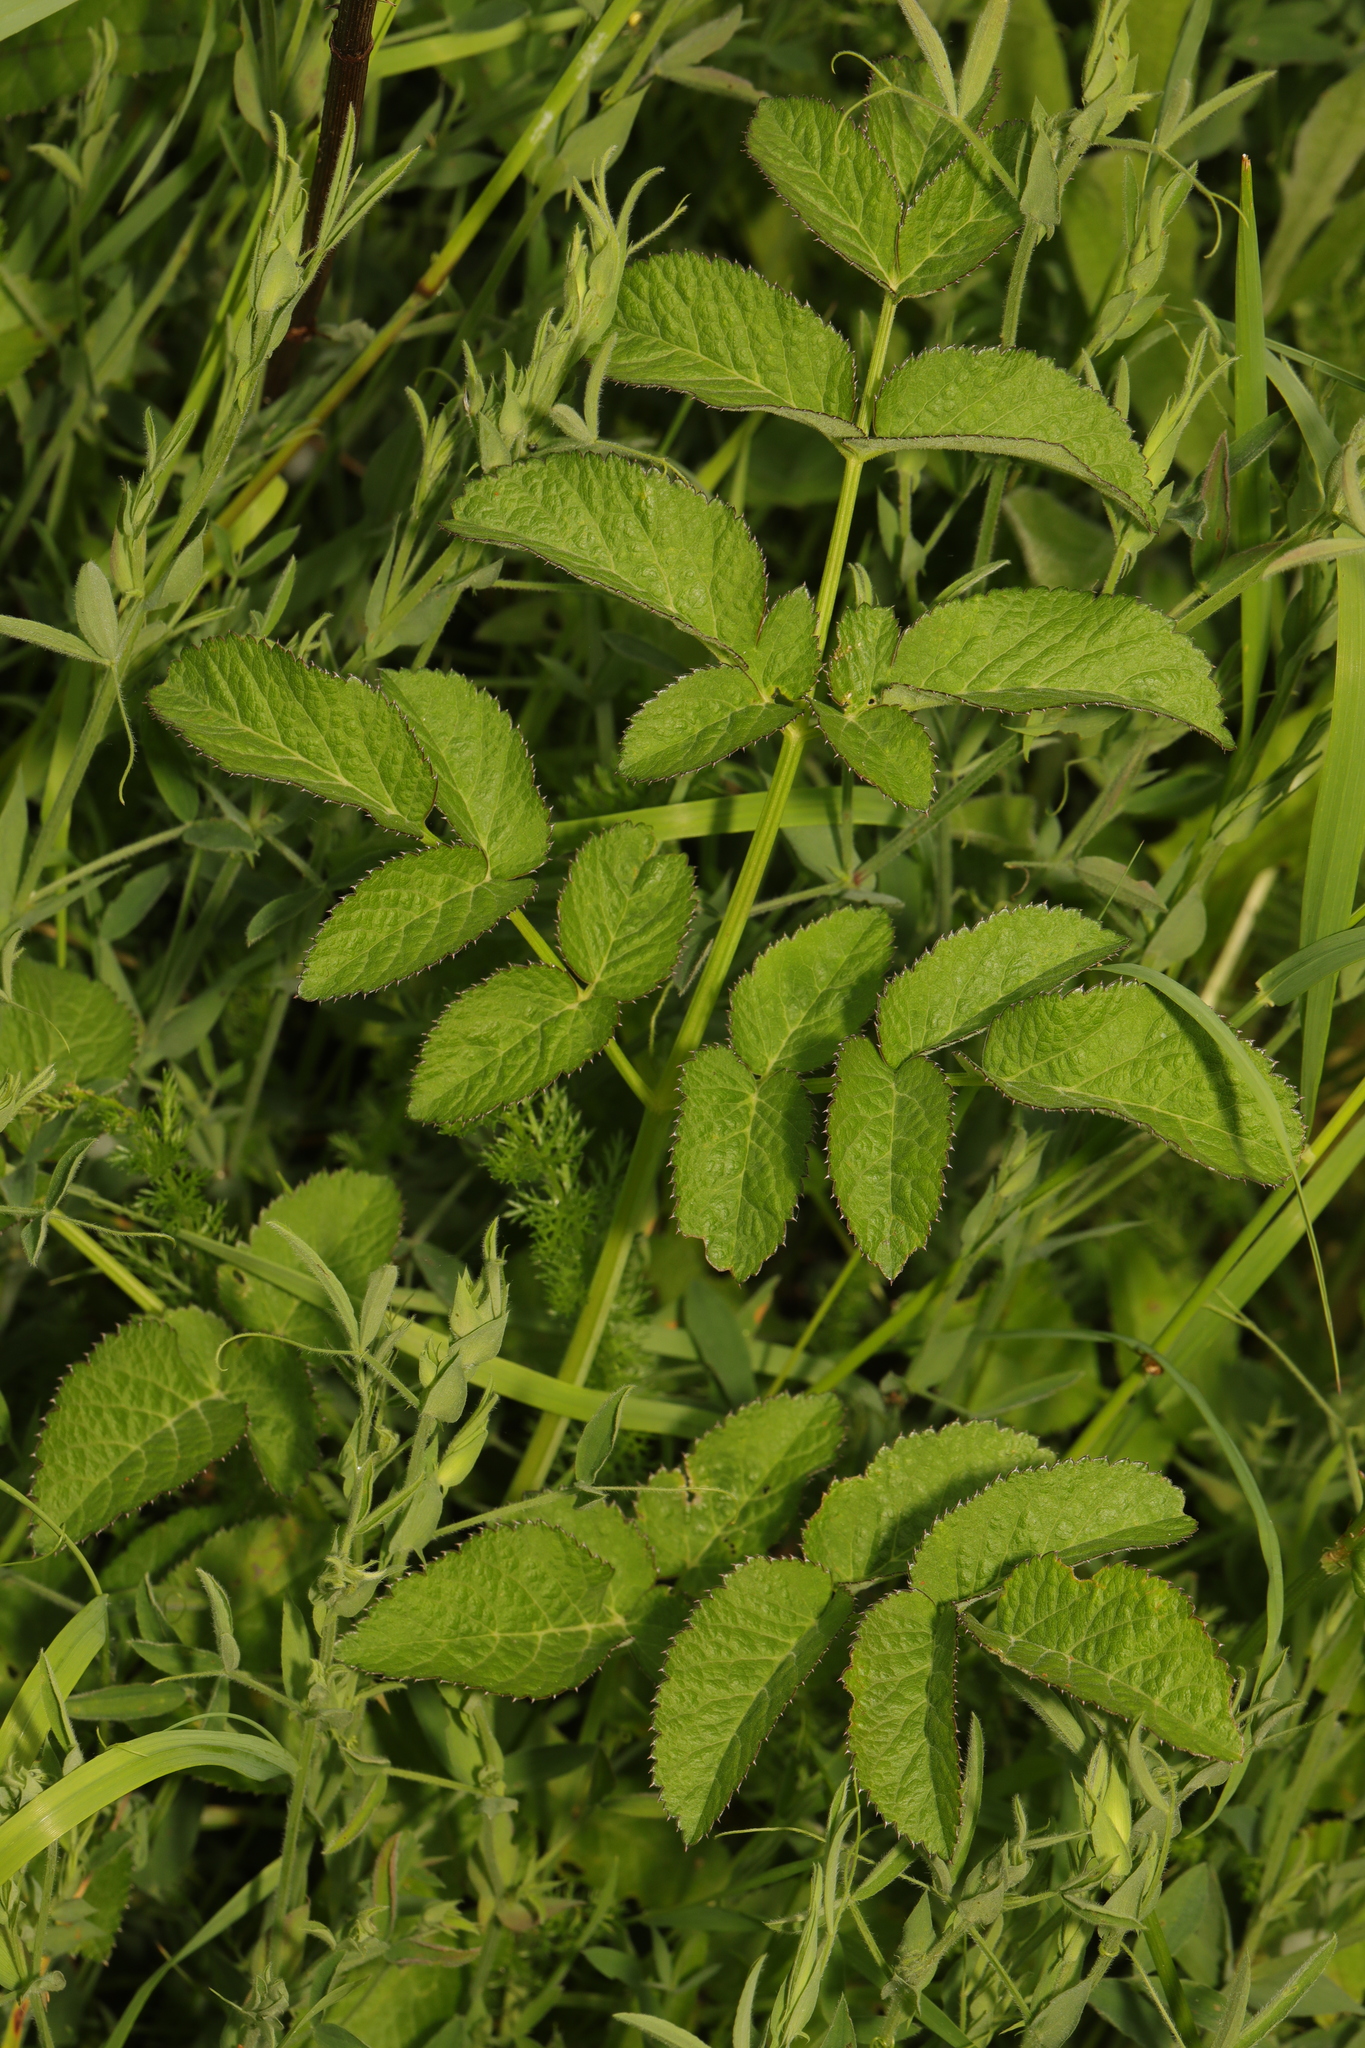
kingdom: Plantae
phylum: Tracheophyta
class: Magnoliopsida
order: Apiales
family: Apiaceae
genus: Angelica
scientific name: Angelica sylvestris
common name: Wild angelica
